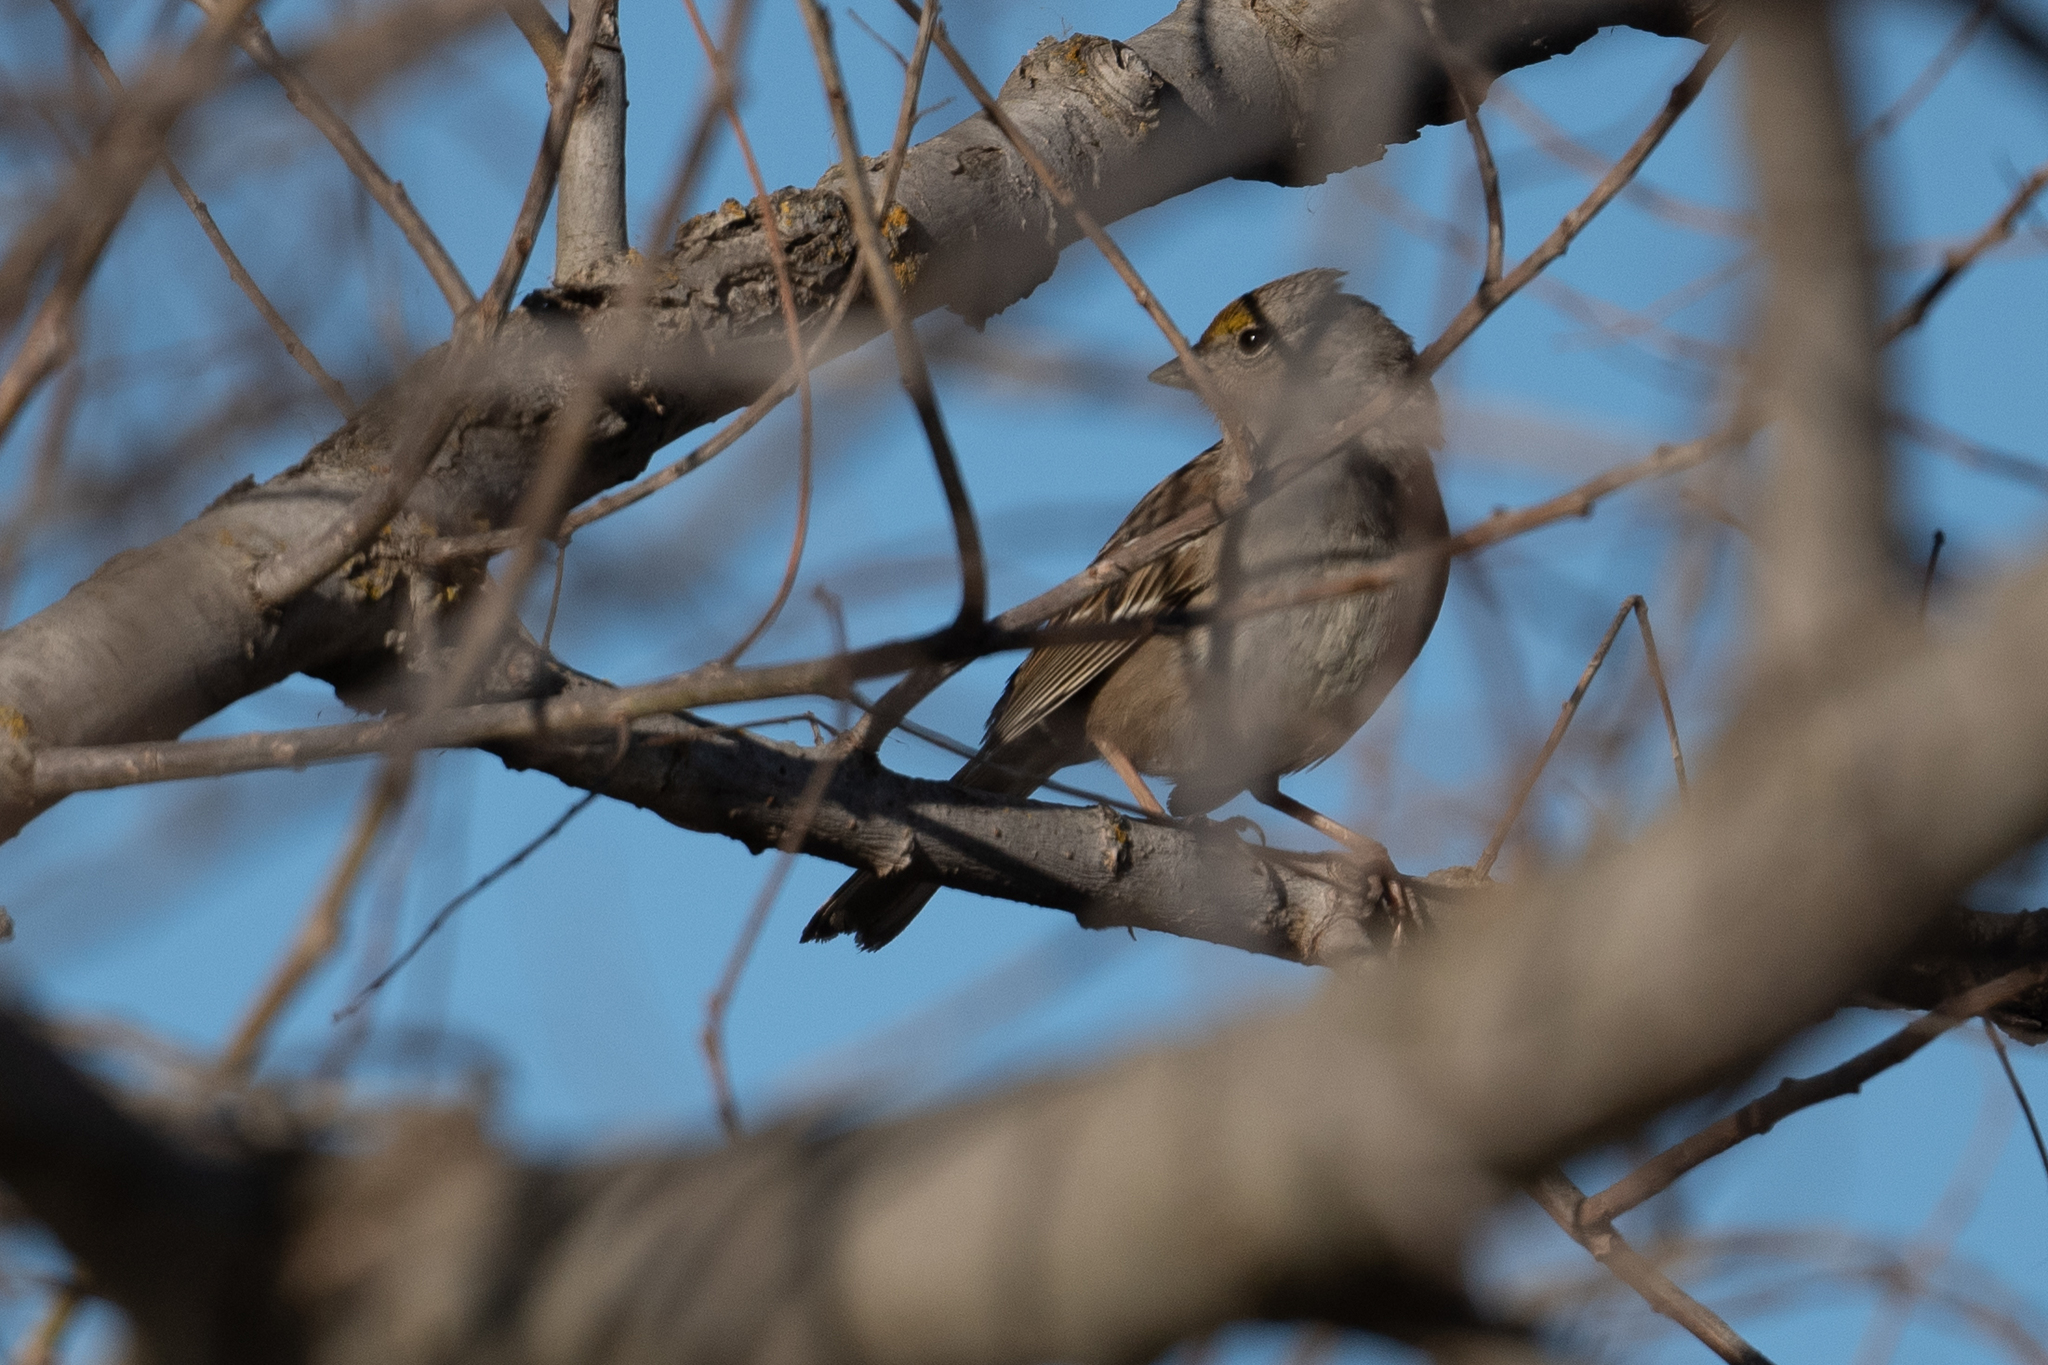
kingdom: Animalia
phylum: Chordata
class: Aves
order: Passeriformes
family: Passerellidae
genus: Zonotrichia
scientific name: Zonotrichia atricapilla
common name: Golden-crowned sparrow
